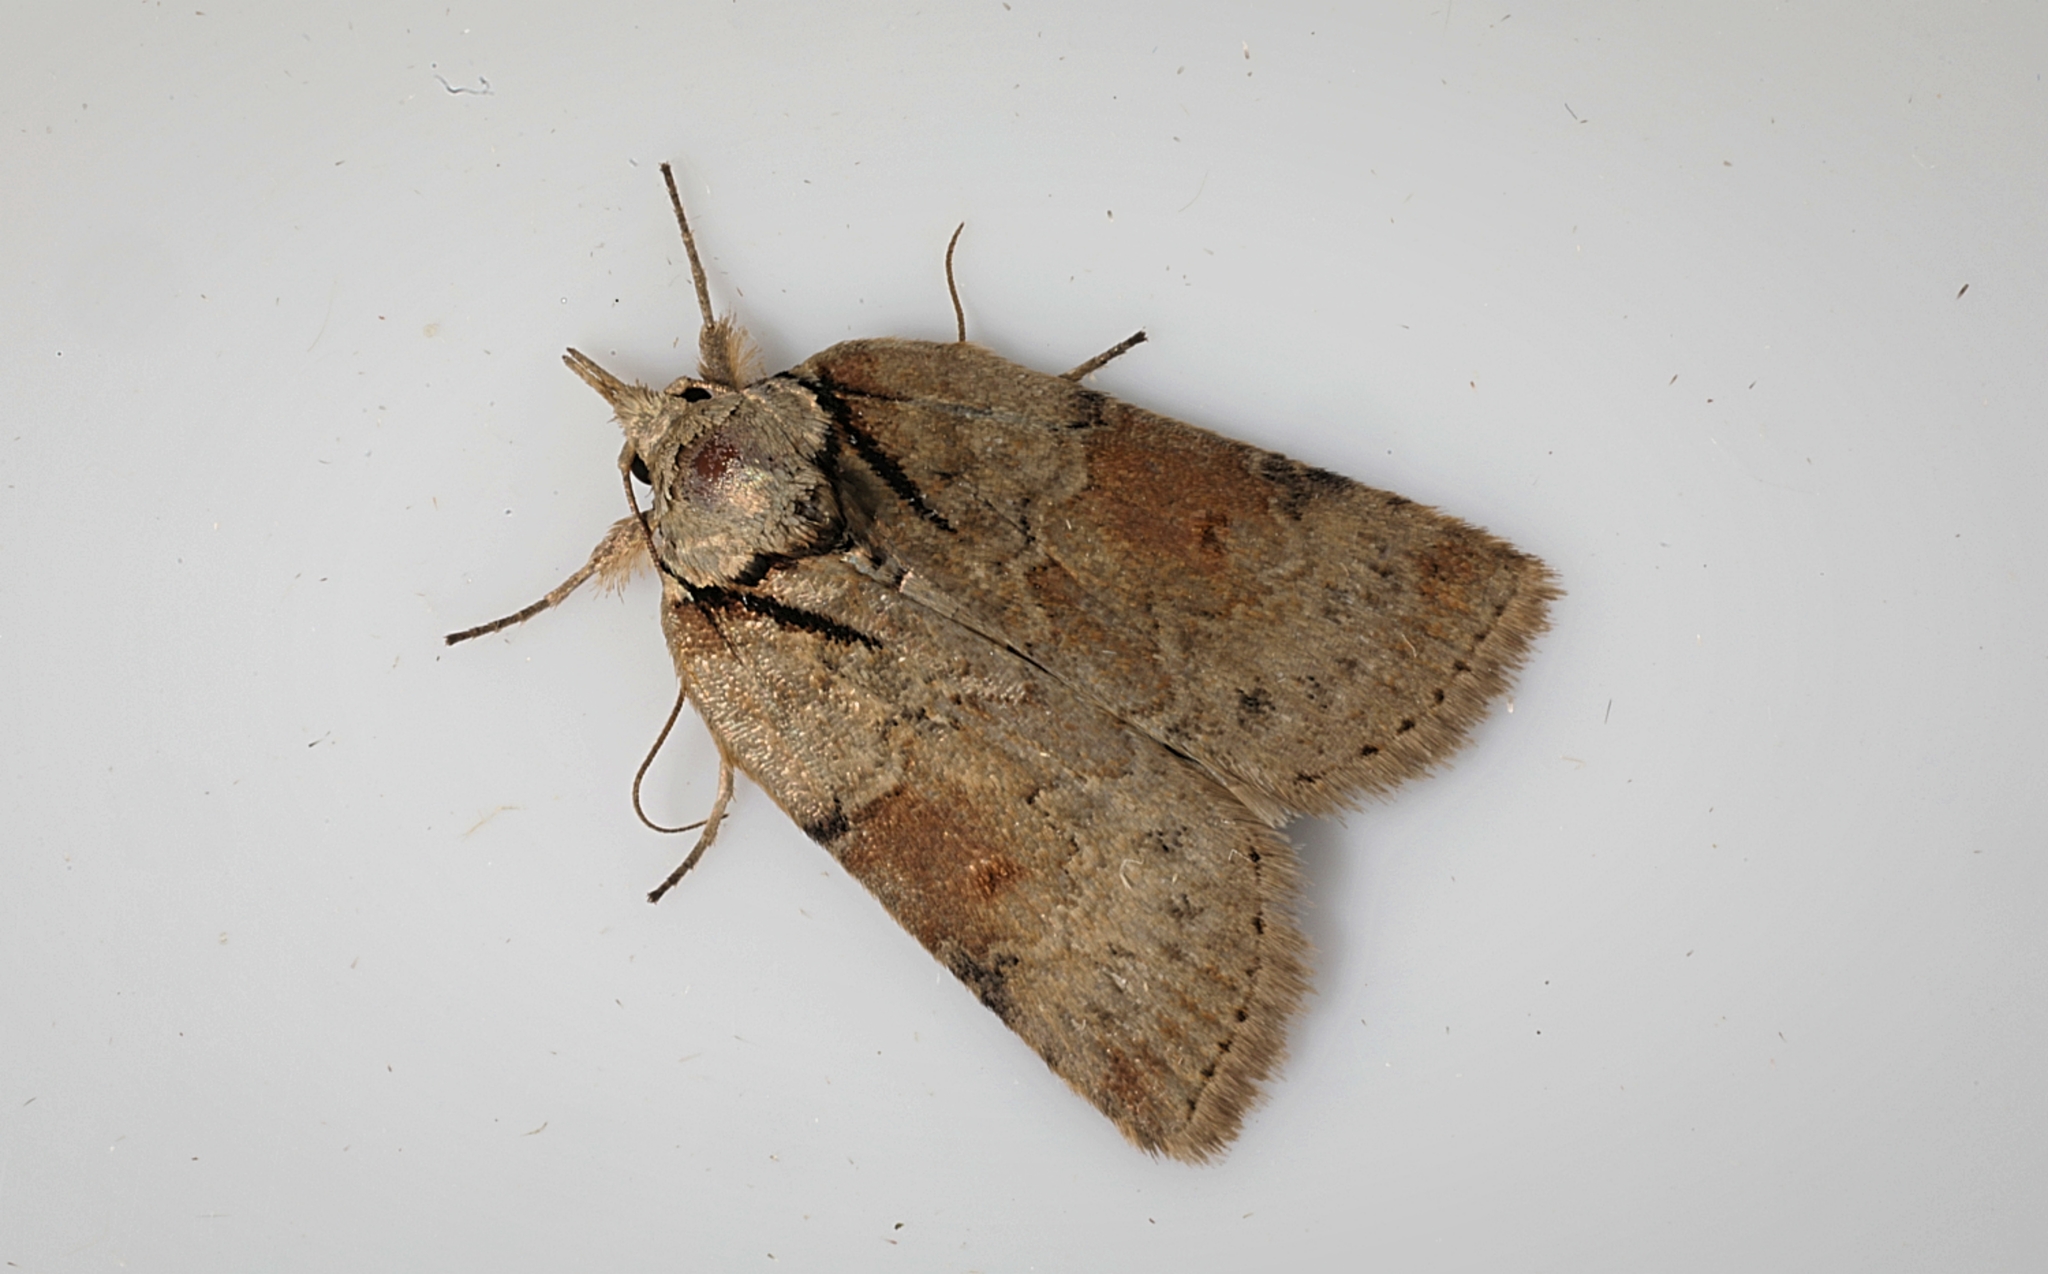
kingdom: Animalia
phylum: Arthropoda
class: Insecta
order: Lepidoptera
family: Nolidae
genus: Nycteola
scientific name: Nycteola revayana
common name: Oak nycteoline
